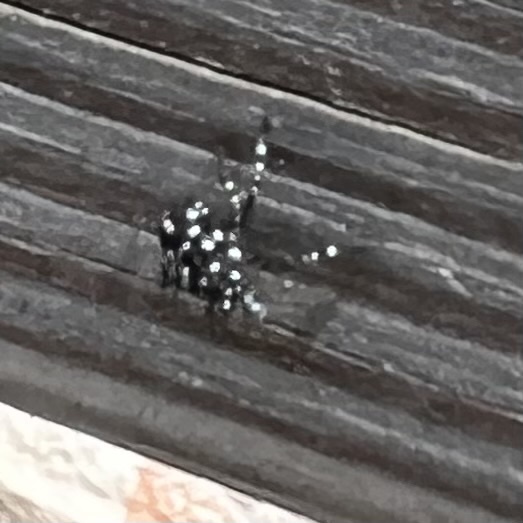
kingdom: Animalia
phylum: Arthropoda
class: Insecta
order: Hemiptera
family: Fulgoridae
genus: Lycorma
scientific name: Lycorma delicatula
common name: Spotted lanternfly
